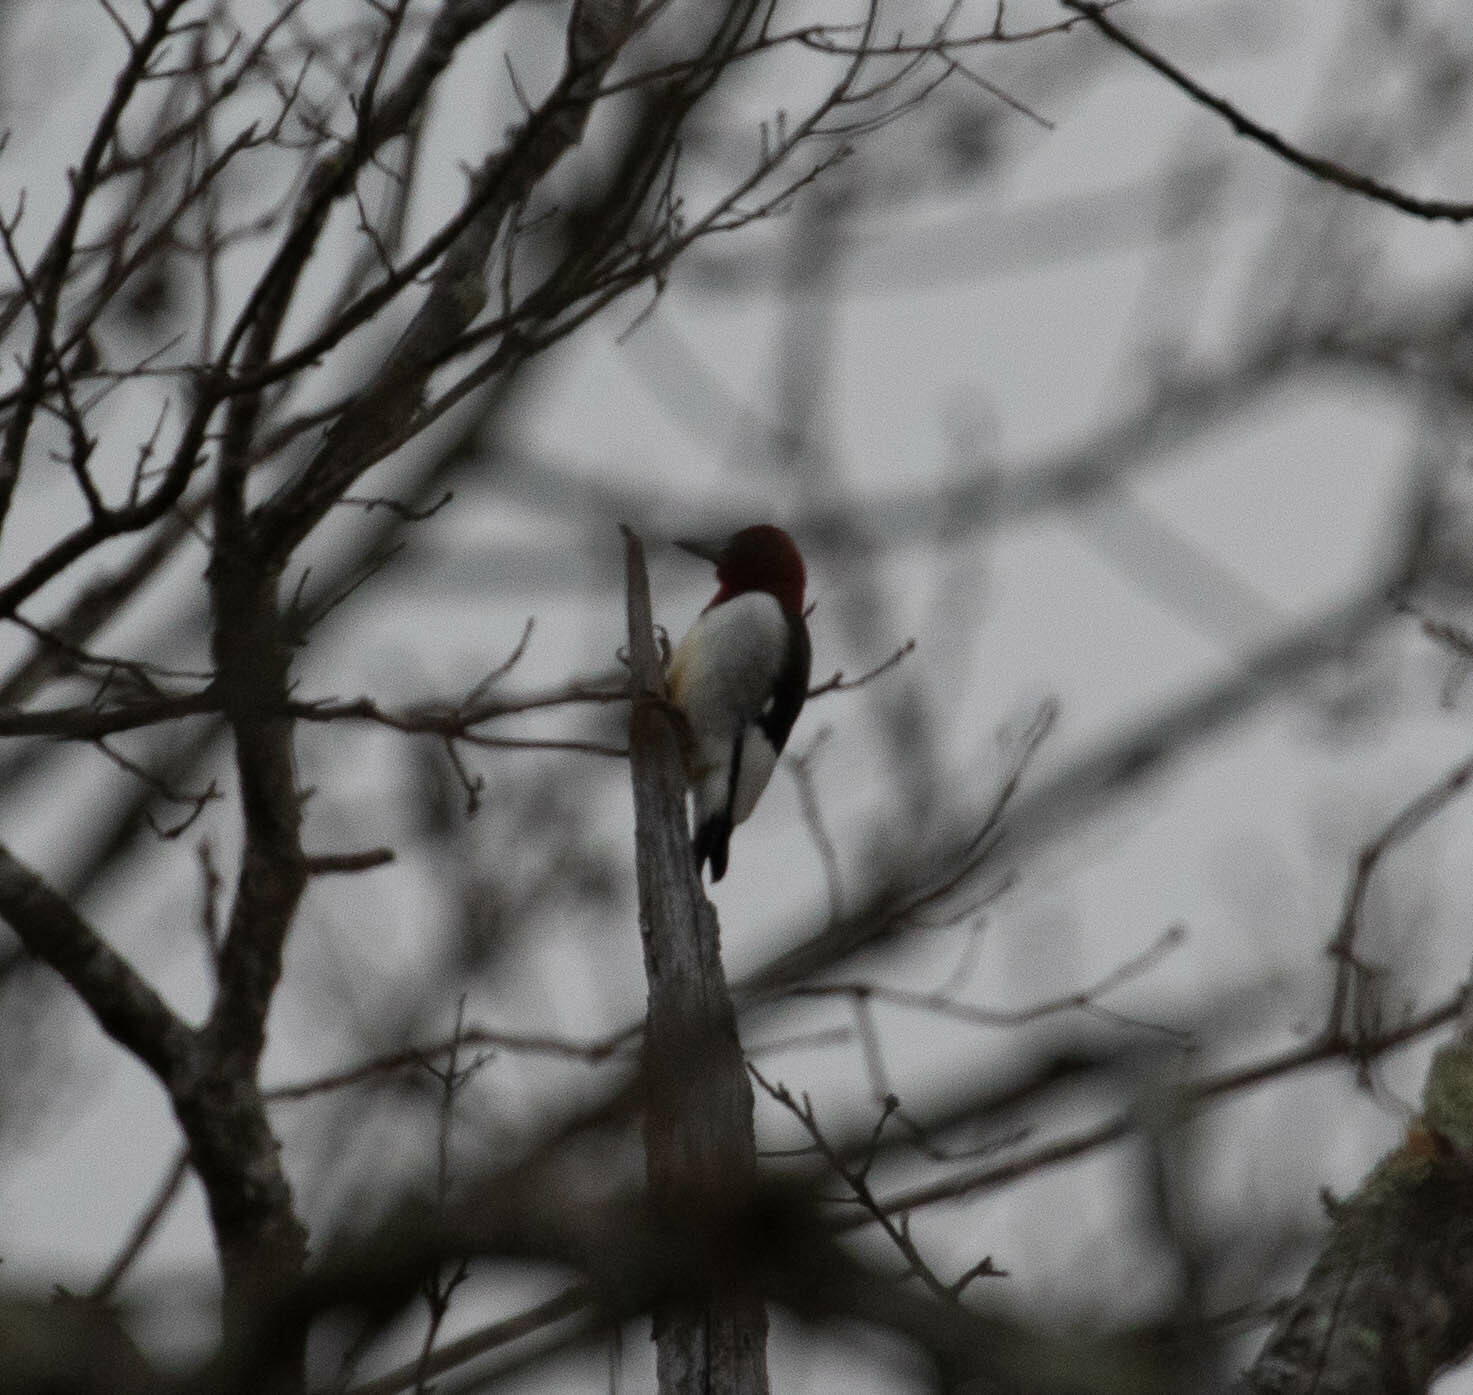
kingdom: Animalia
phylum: Chordata
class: Aves
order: Piciformes
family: Picidae
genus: Melanerpes
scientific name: Melanerpes erythrocephalus
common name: Red-headed woodpecker
